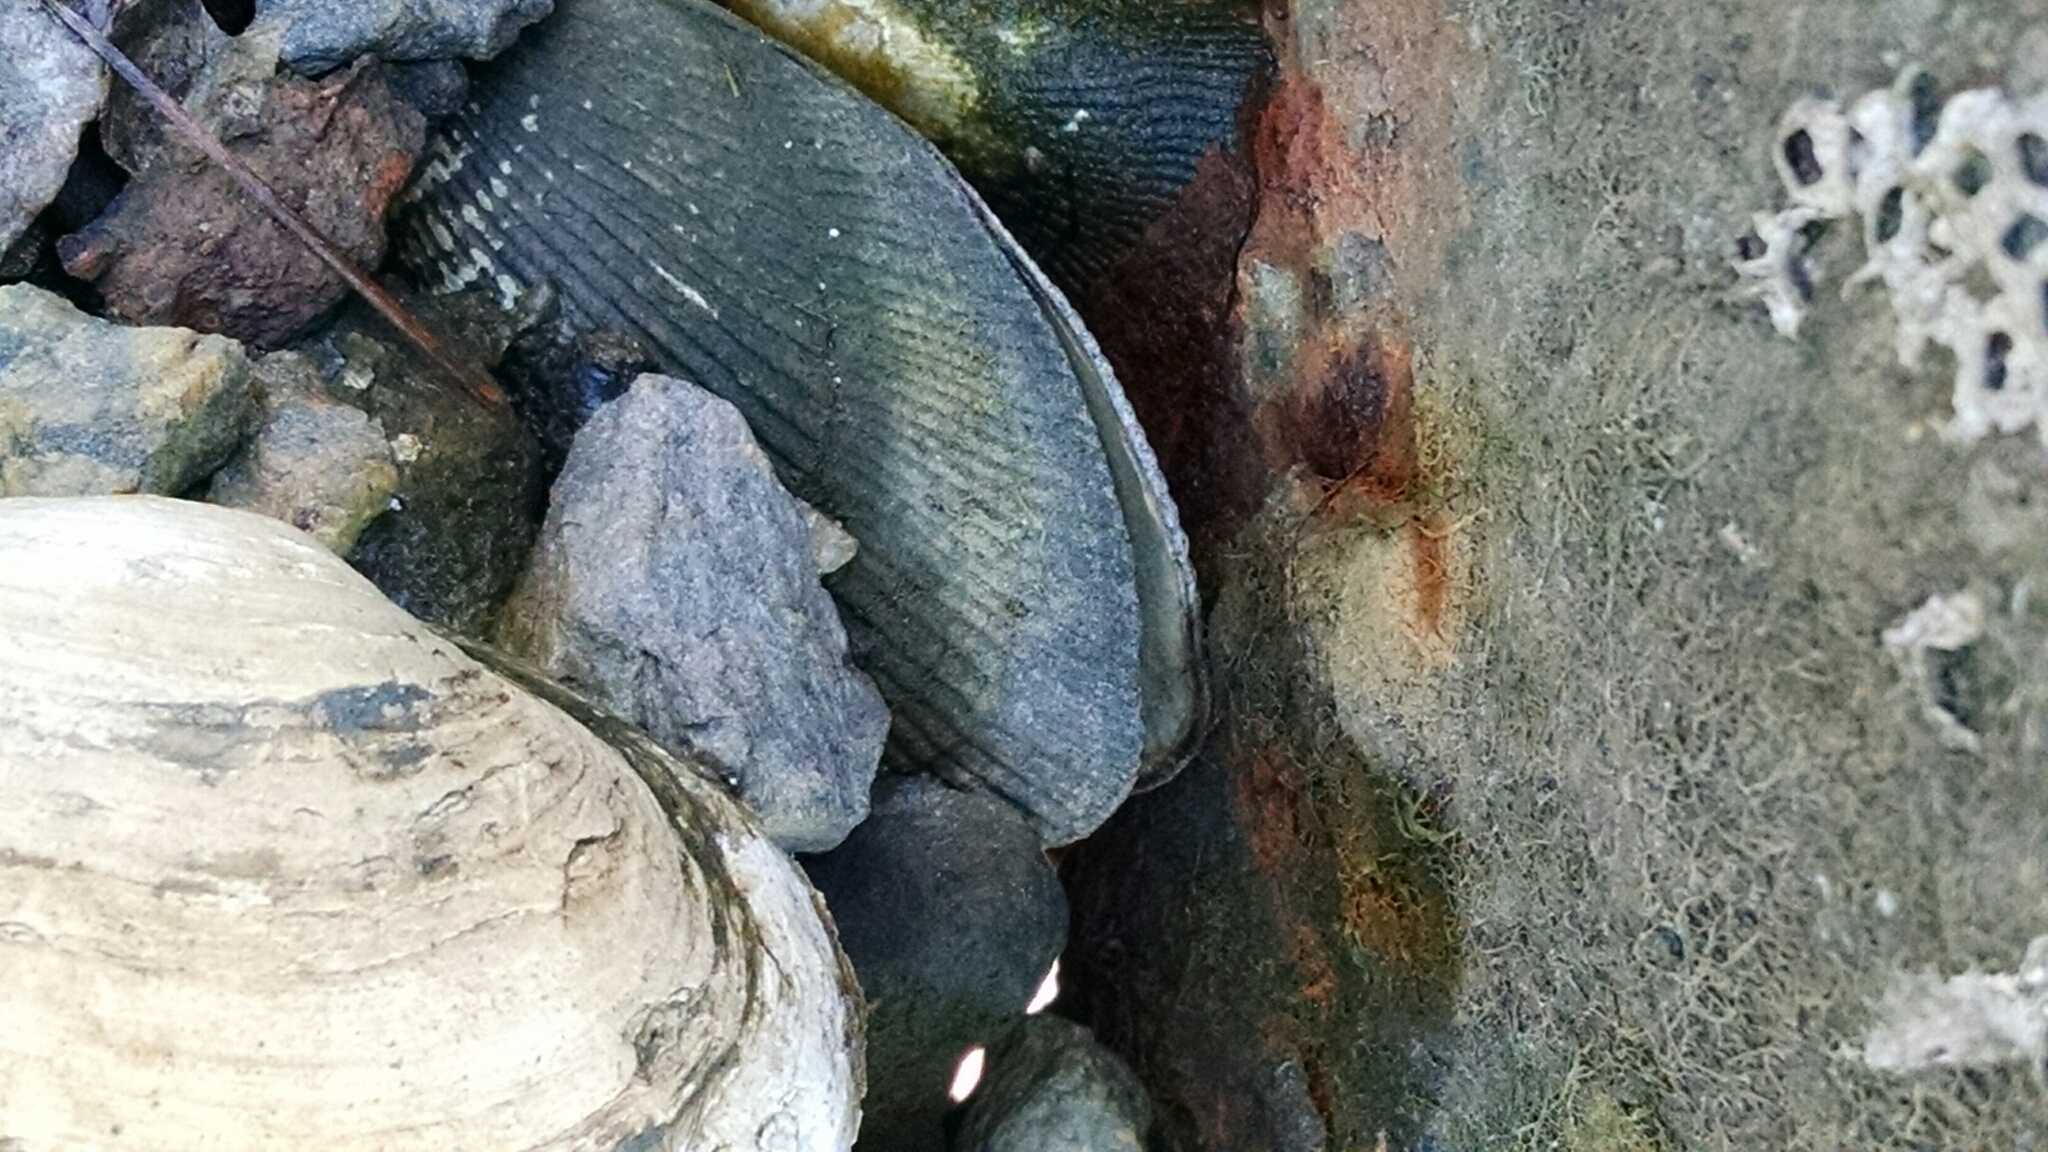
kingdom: Animalia
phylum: Mollusca
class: Bivalvia
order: Mytilida
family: Mytilidae
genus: Geukensia
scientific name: Geukensia demissa
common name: Ribbed mussel
